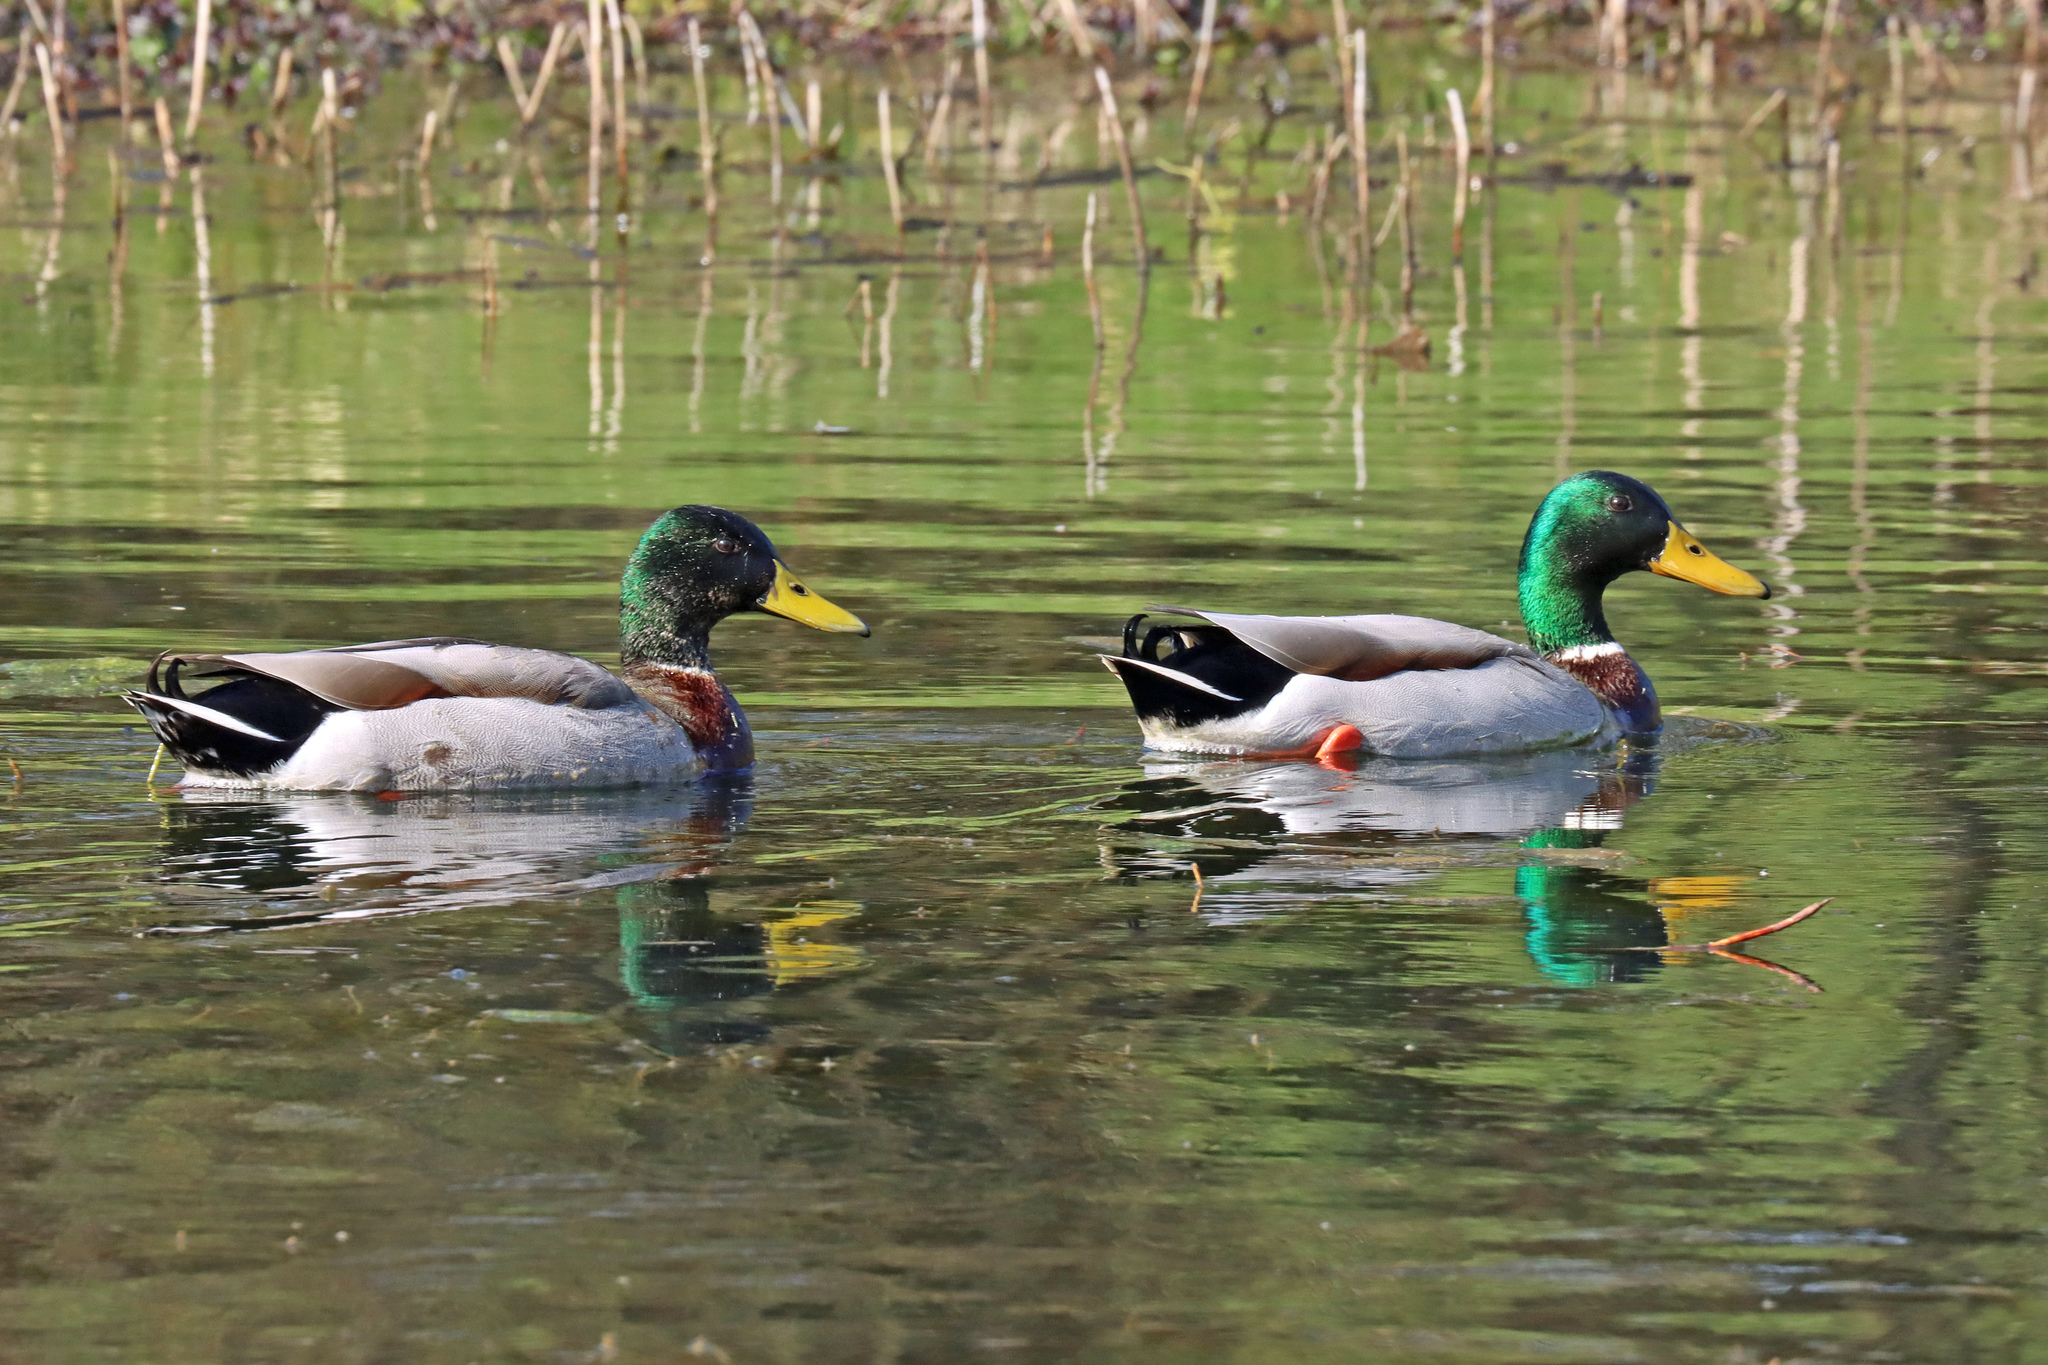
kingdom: Animalia
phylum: Chordata
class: Aves
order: Anseriformes
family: Anatidae
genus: Anas
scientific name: Anas platyrhynchos
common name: Mallard
